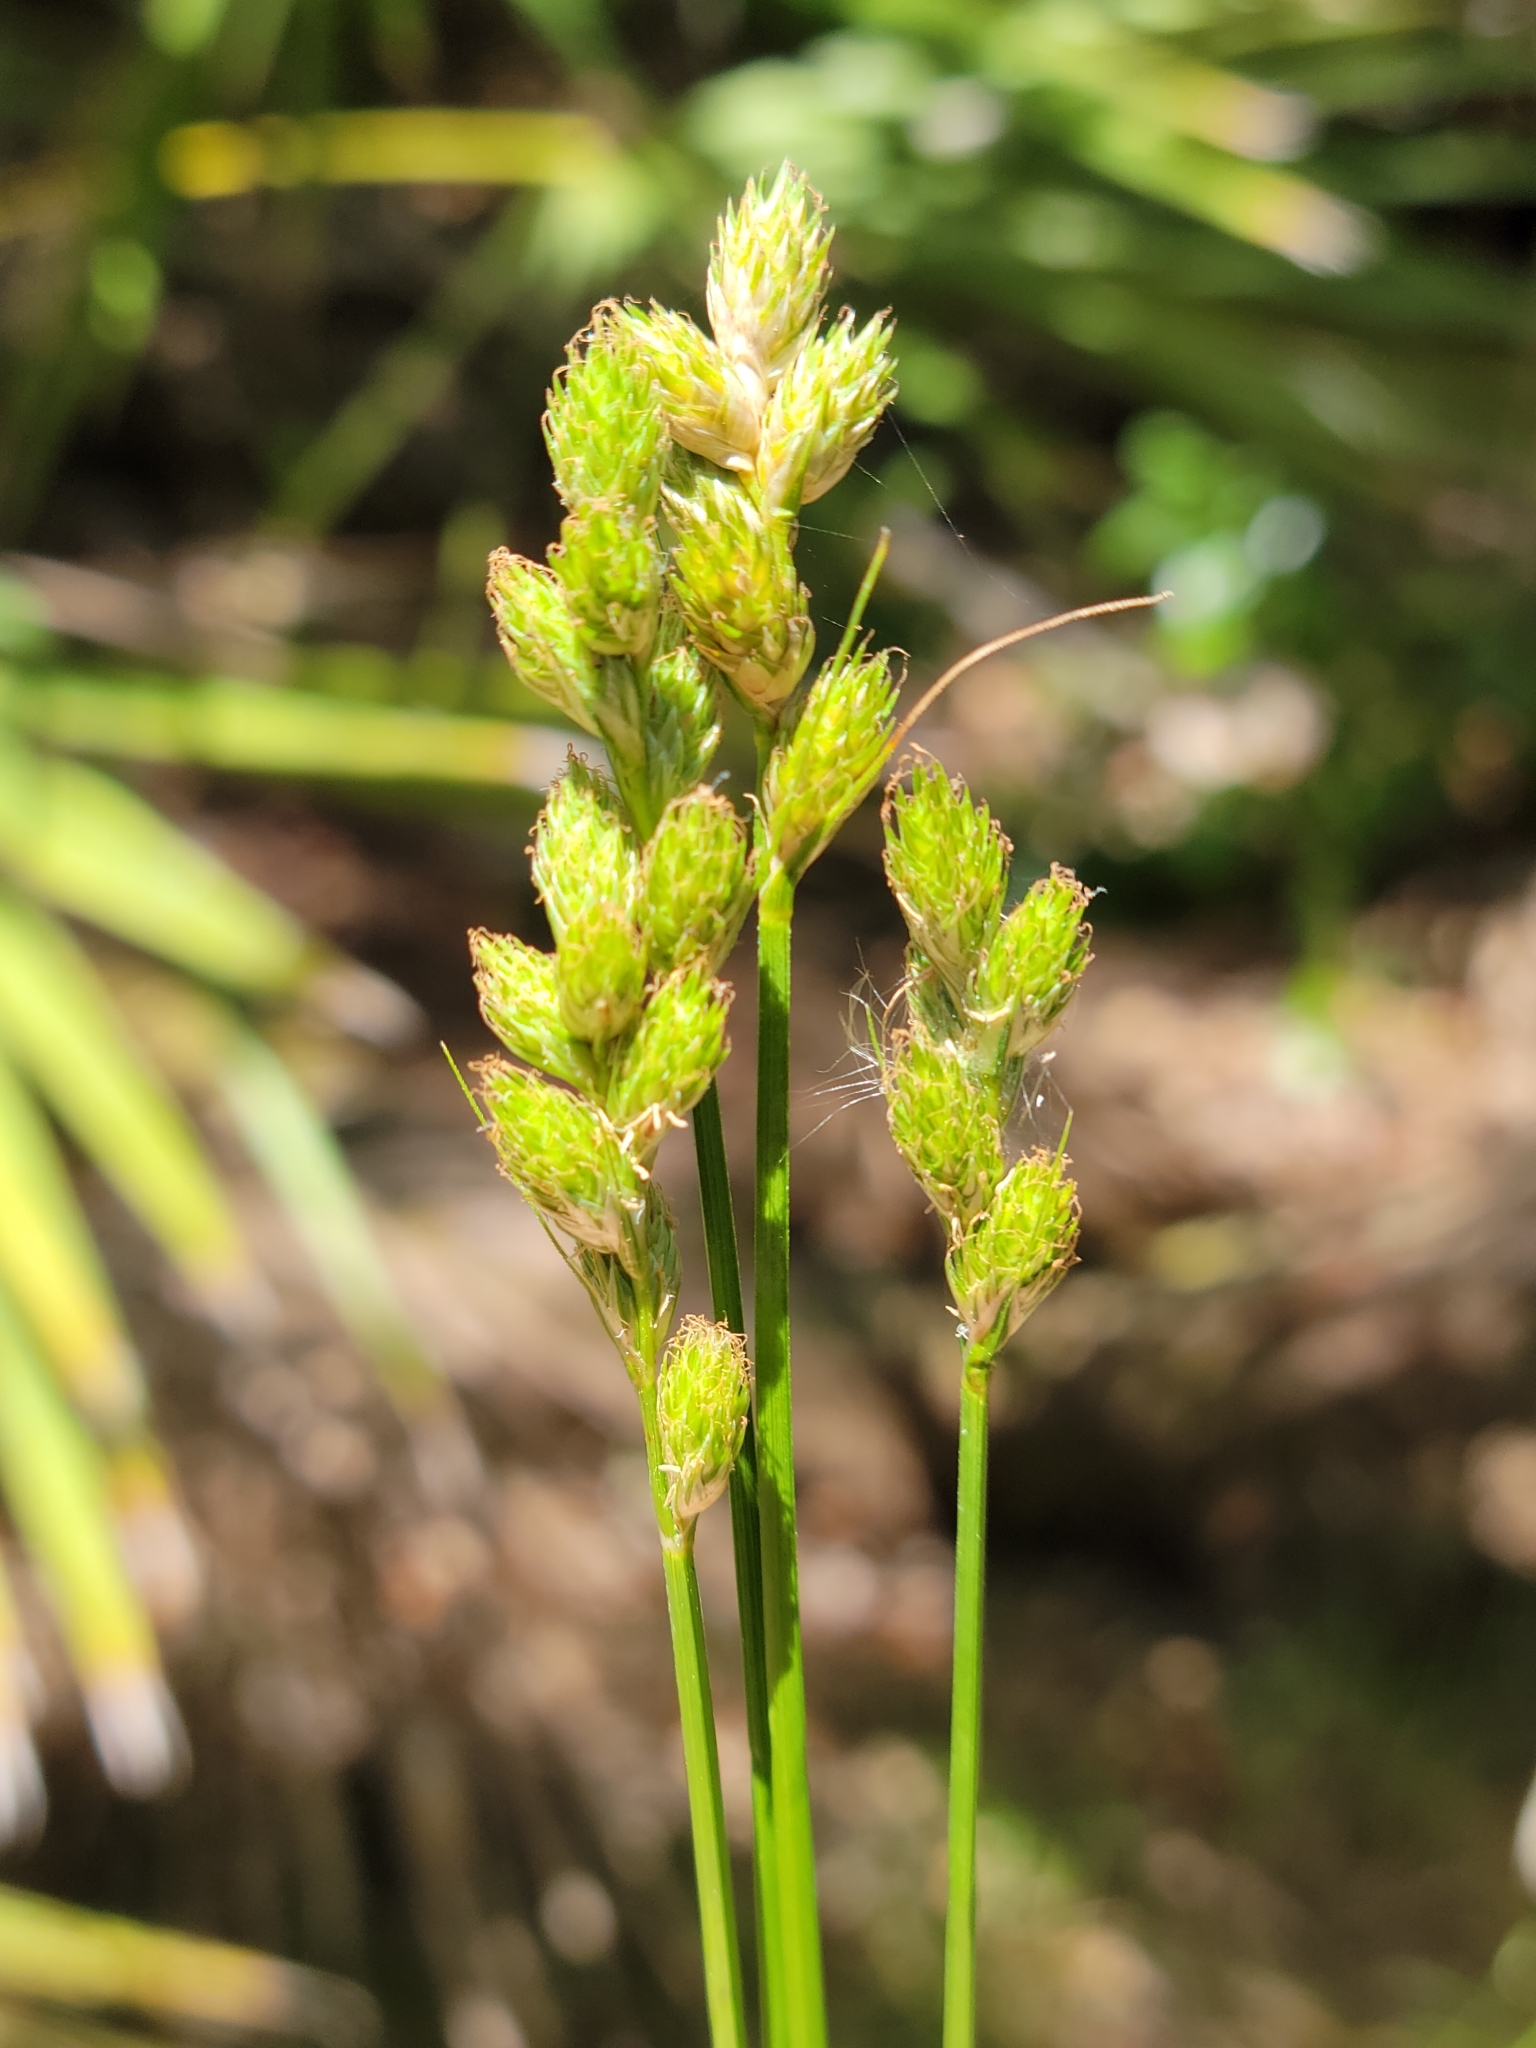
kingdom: Plantae
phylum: Tracheophyta
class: Liliopsida
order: Poales
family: Cyperaceae
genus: Carex
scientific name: Carex longii
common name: Long's sedge
